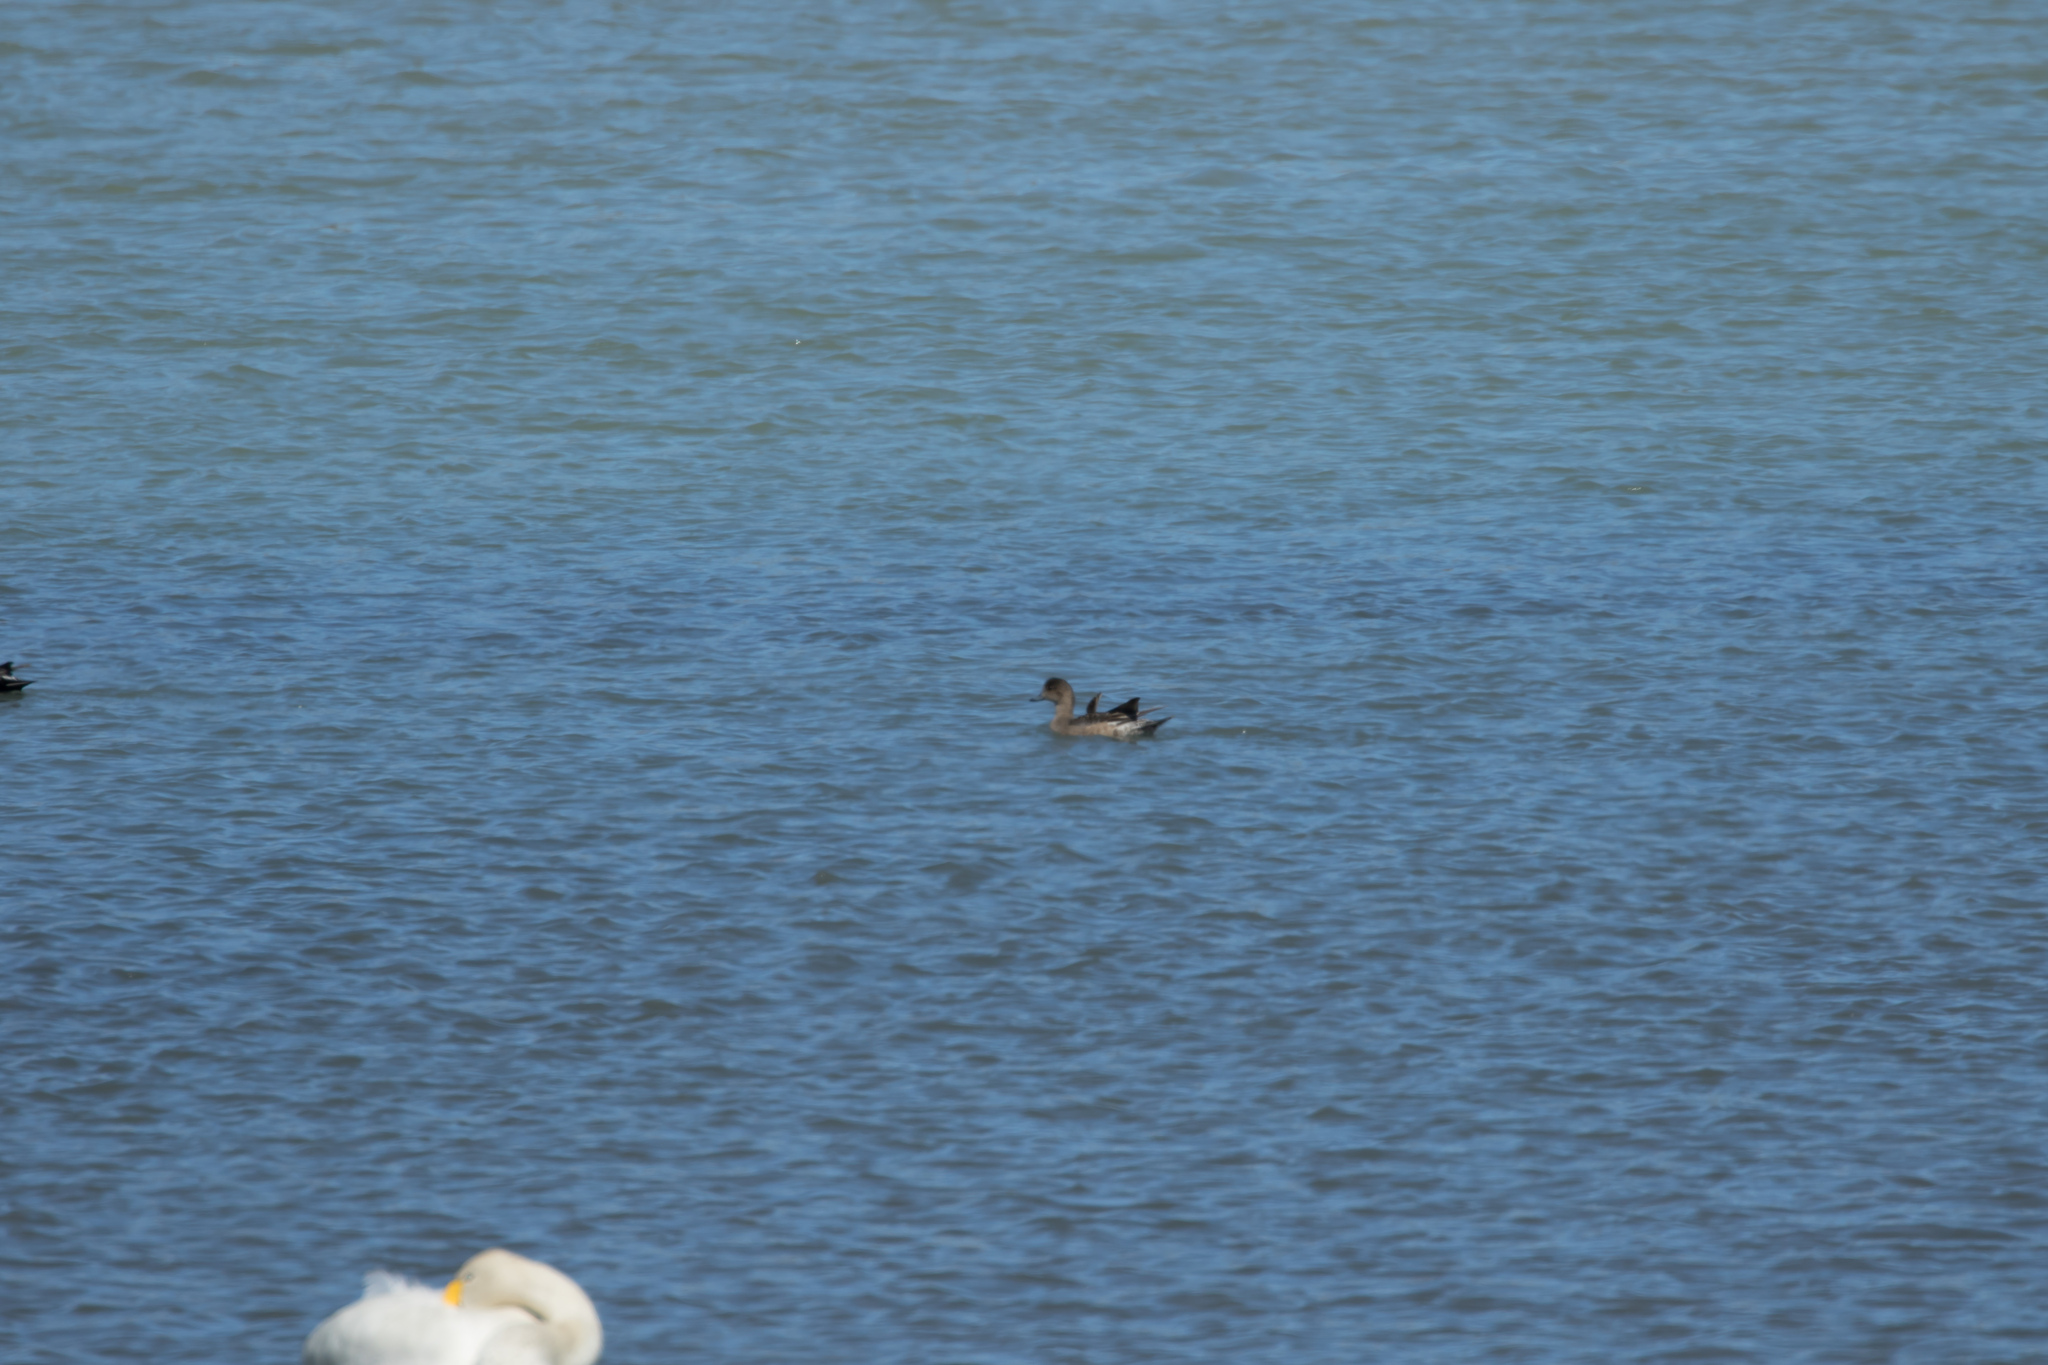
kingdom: Animalia
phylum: Chordata
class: Aves
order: Anseriformes
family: Anatidae
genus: Cygnus
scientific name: Cygnus cygnus
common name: Whooper swan
